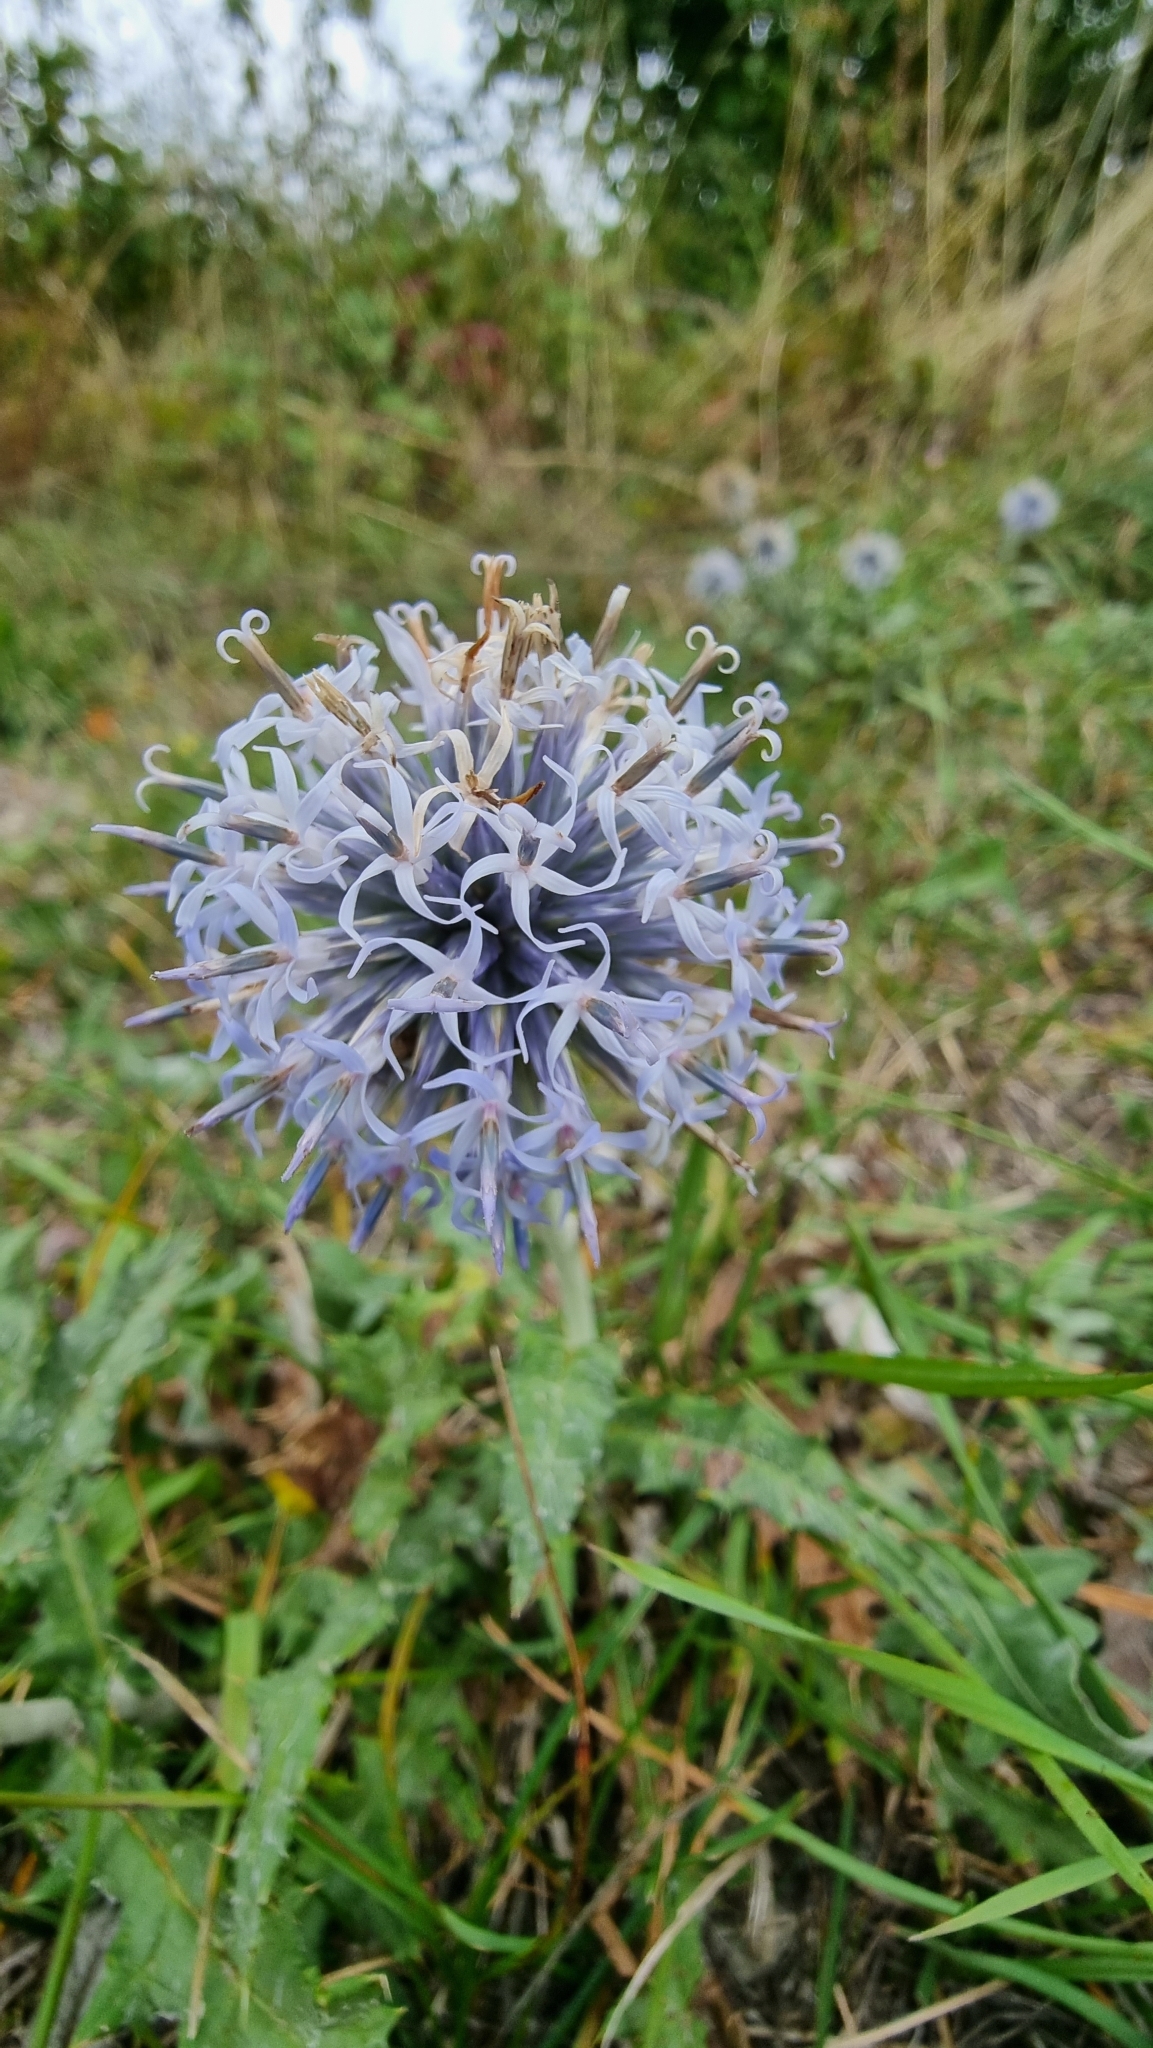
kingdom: Plantae
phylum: Tracheophyta
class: Magnoliopsida
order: Asterales
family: Asteraceae
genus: Echinops
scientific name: Echinops ritro
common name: Globe thistle
